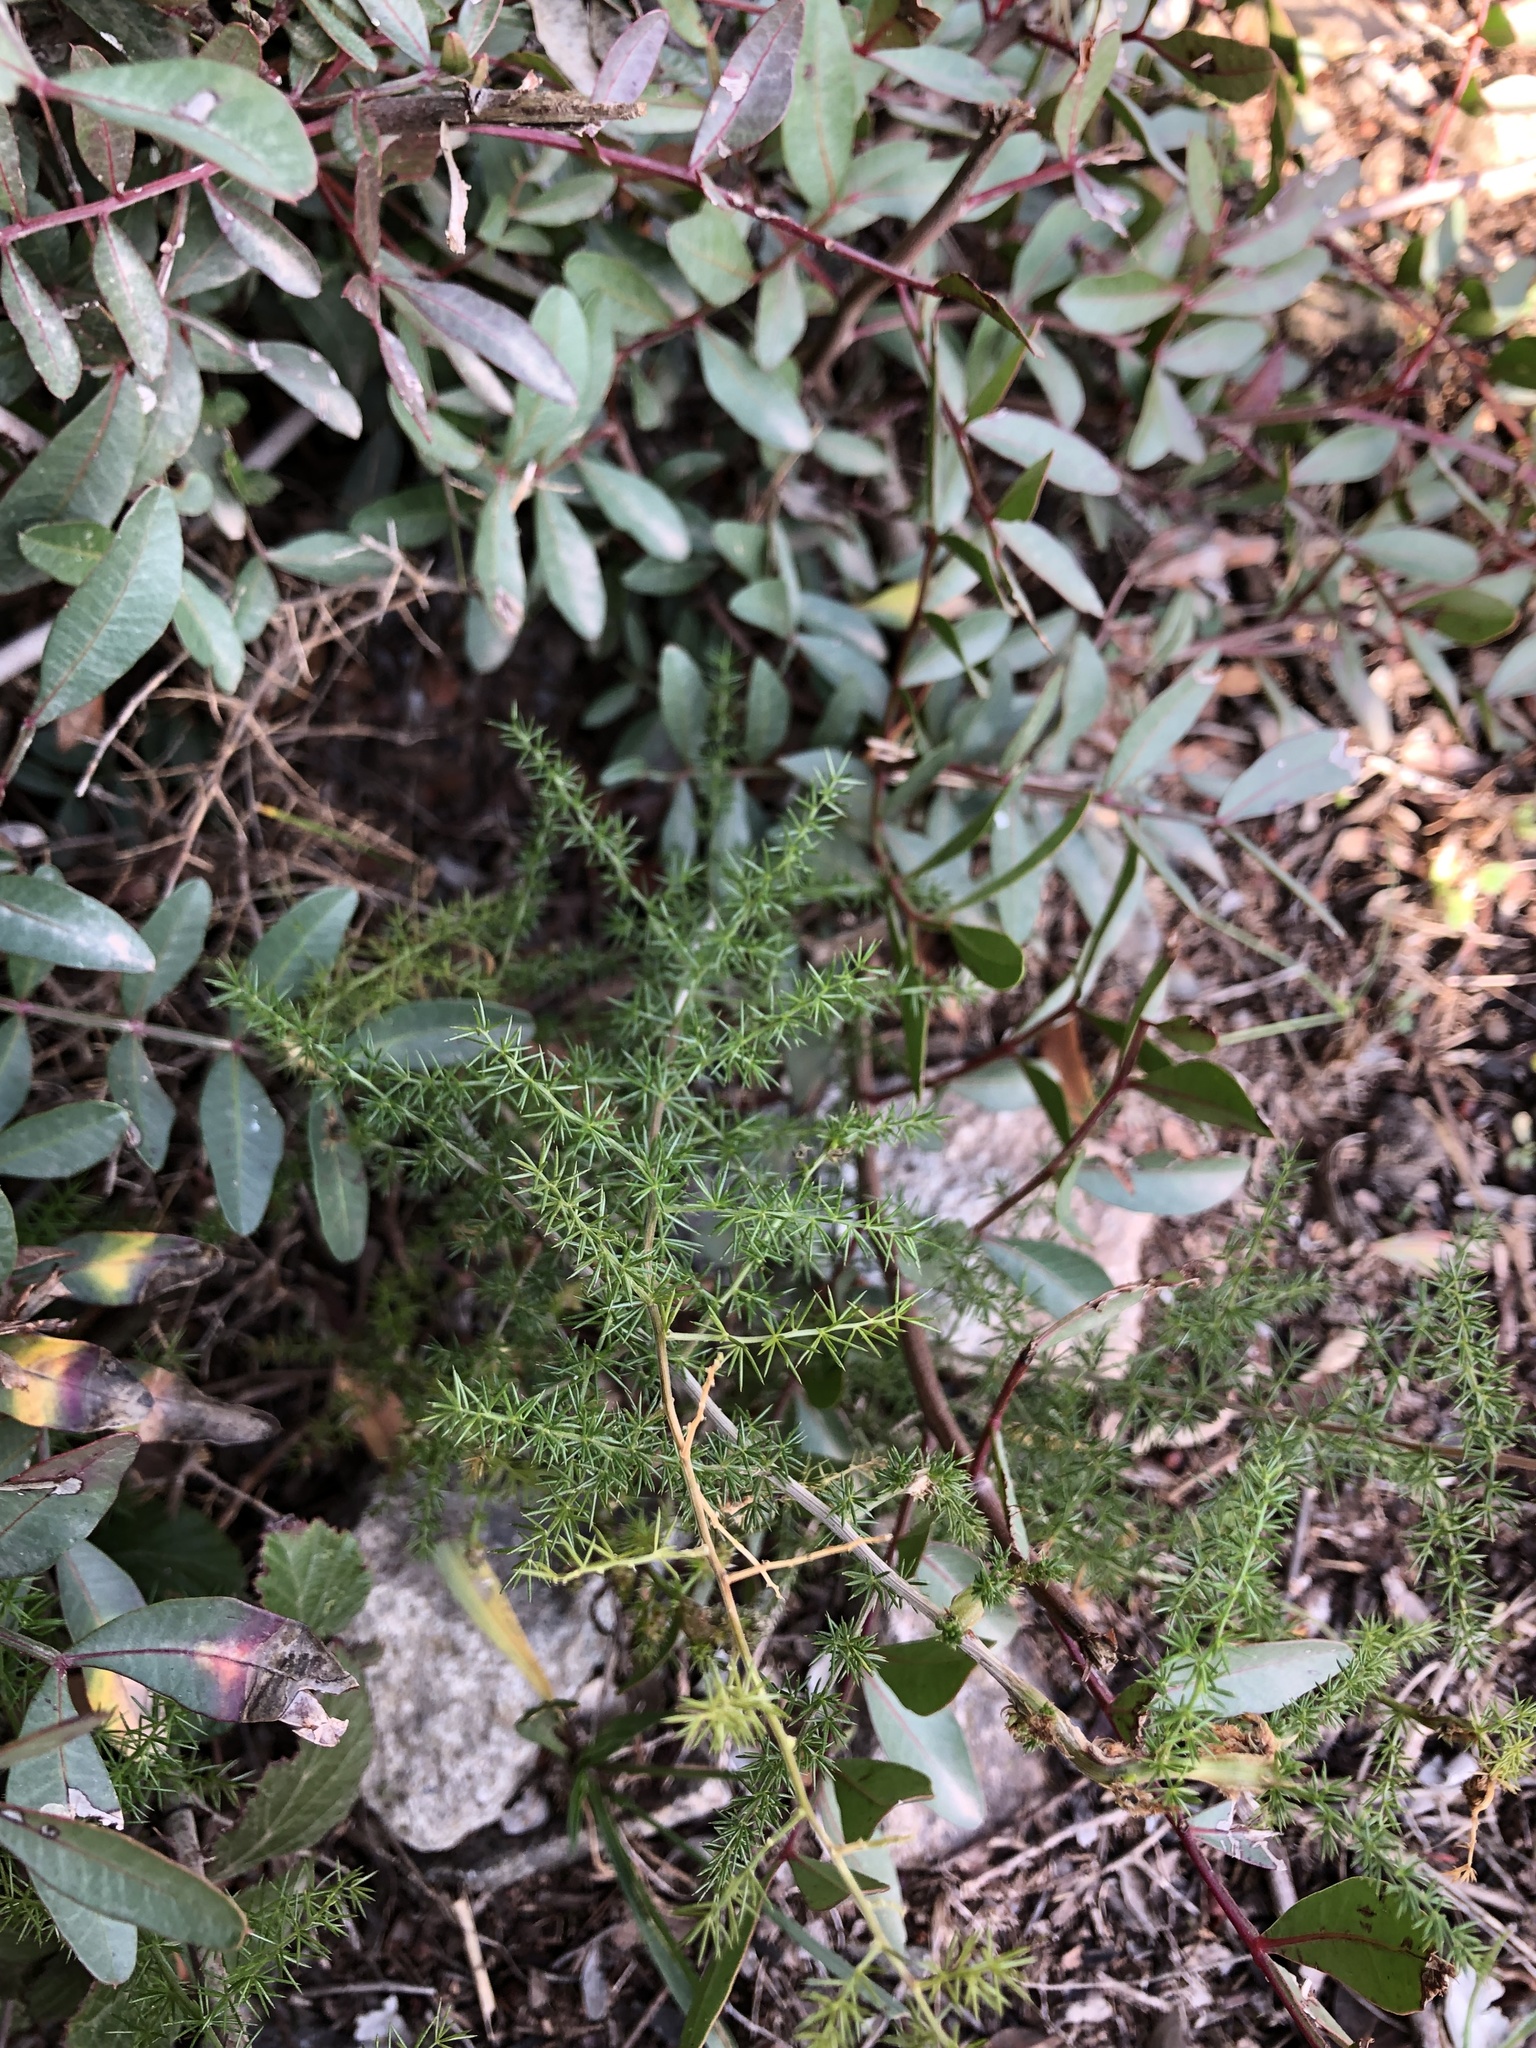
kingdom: Plantae
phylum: Tracheophyta
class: Liliopsida
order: Asparagales
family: Asparagaceae
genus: Asparagus
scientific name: Asparagus acutifolius
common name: Wild asparagus
